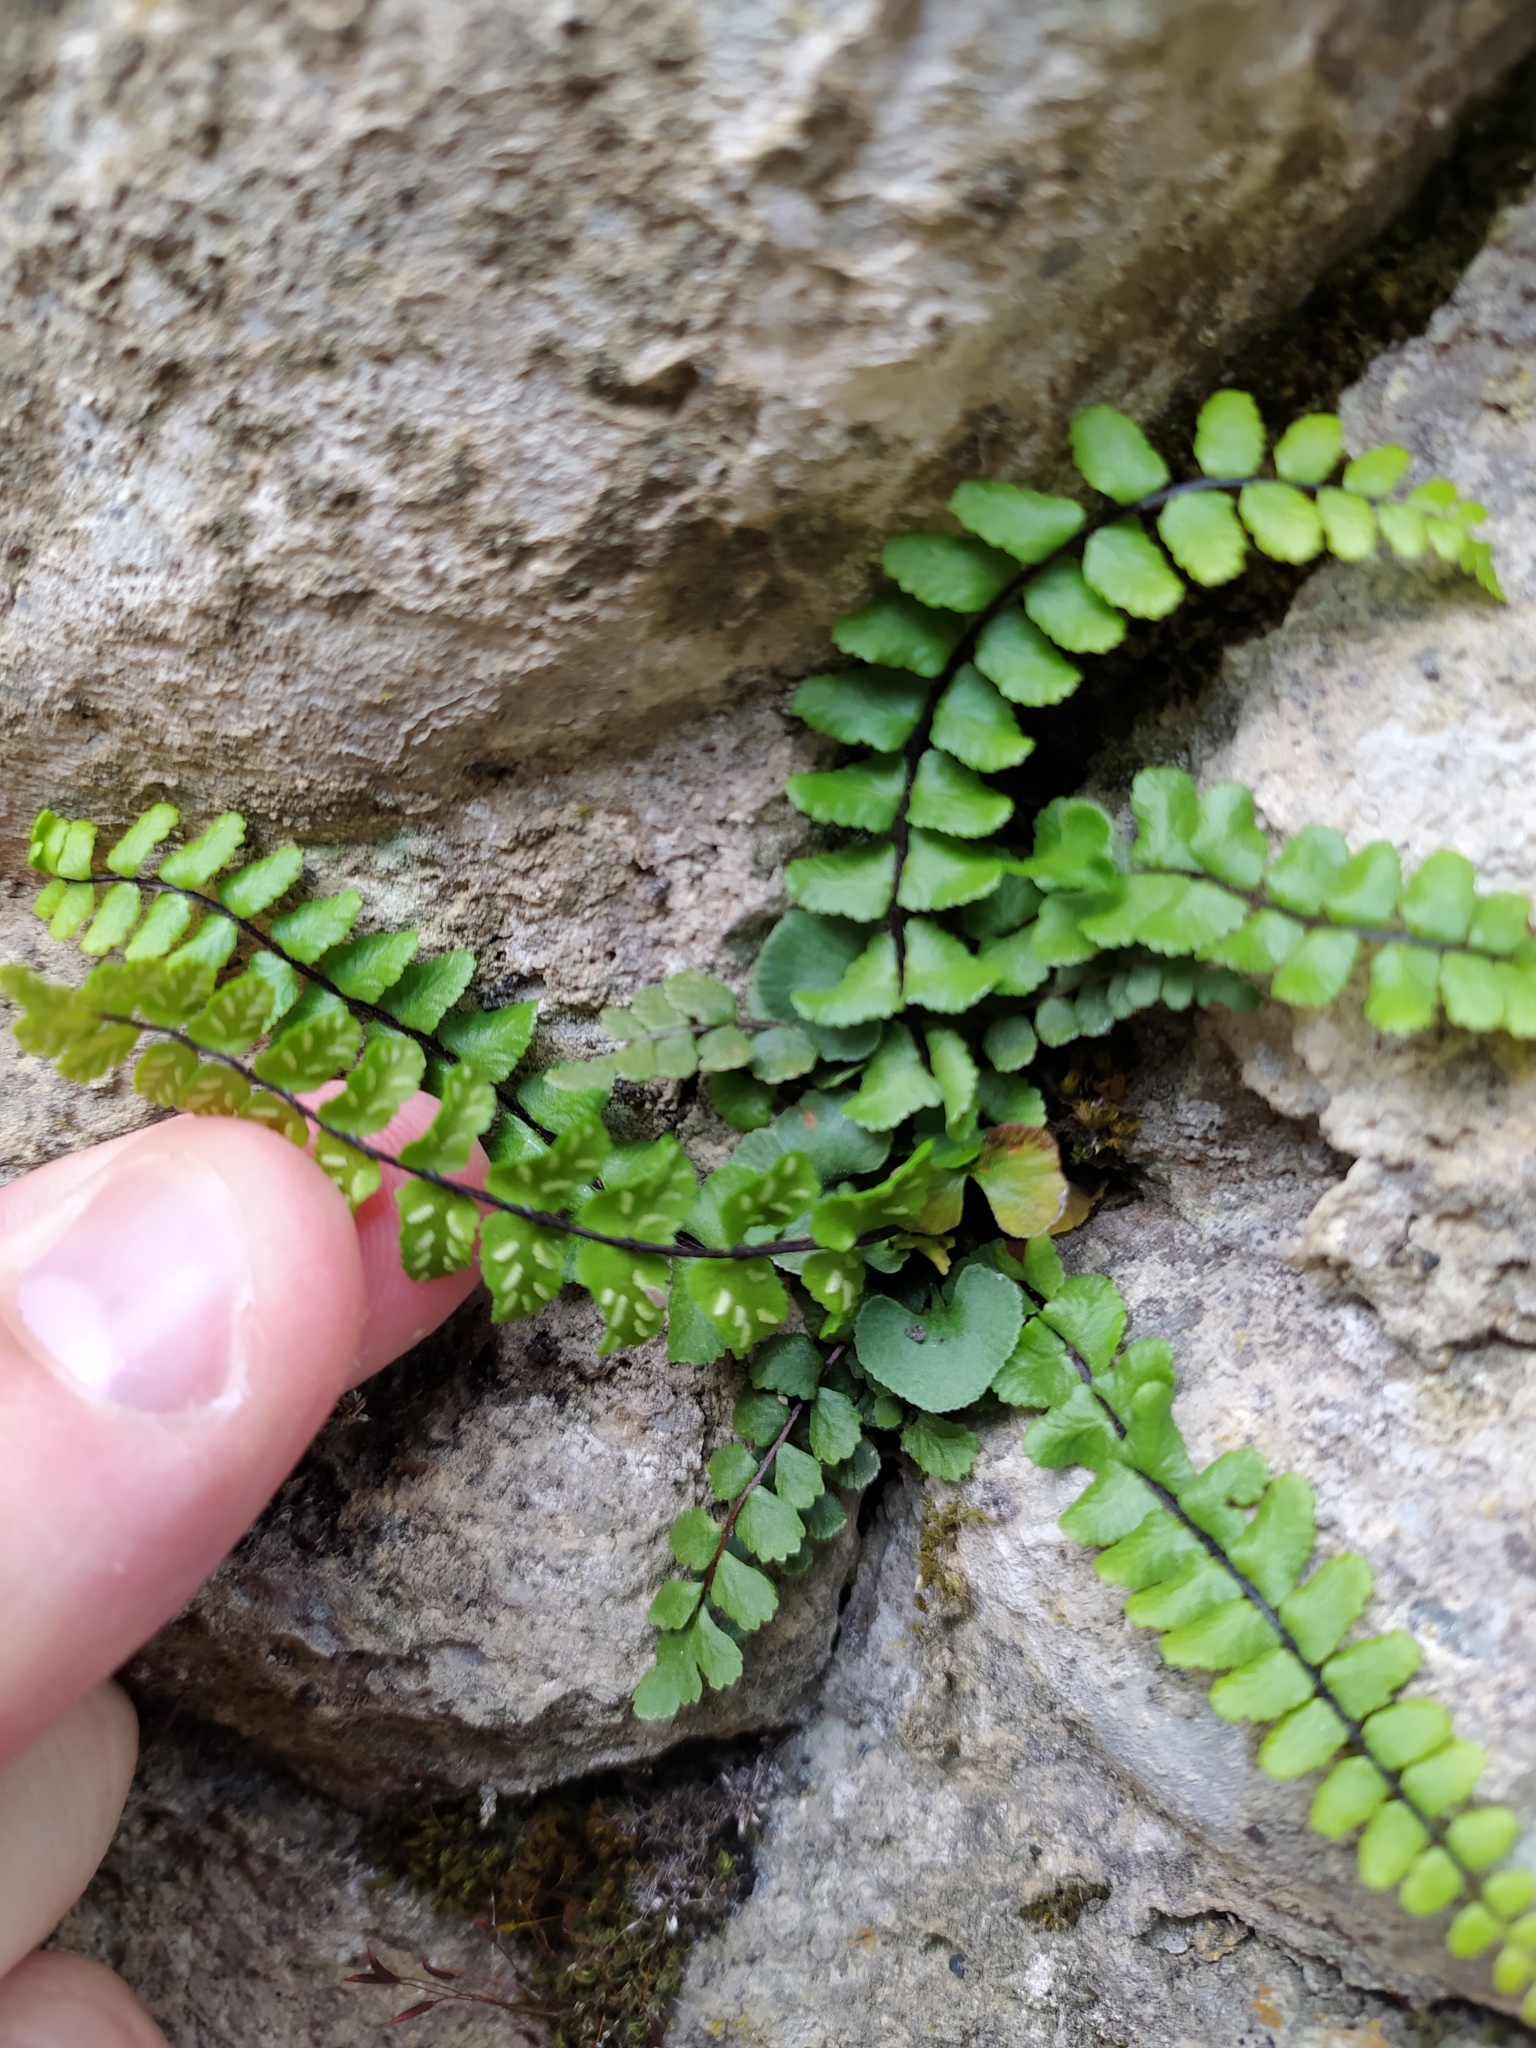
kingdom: Plantae
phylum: Tracheophyta
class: Polypodiopsida
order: Polypodiales
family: Aspleniaceae
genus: Asplenium
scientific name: Asplenium trichomanes
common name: Maidenhair spleenwort
